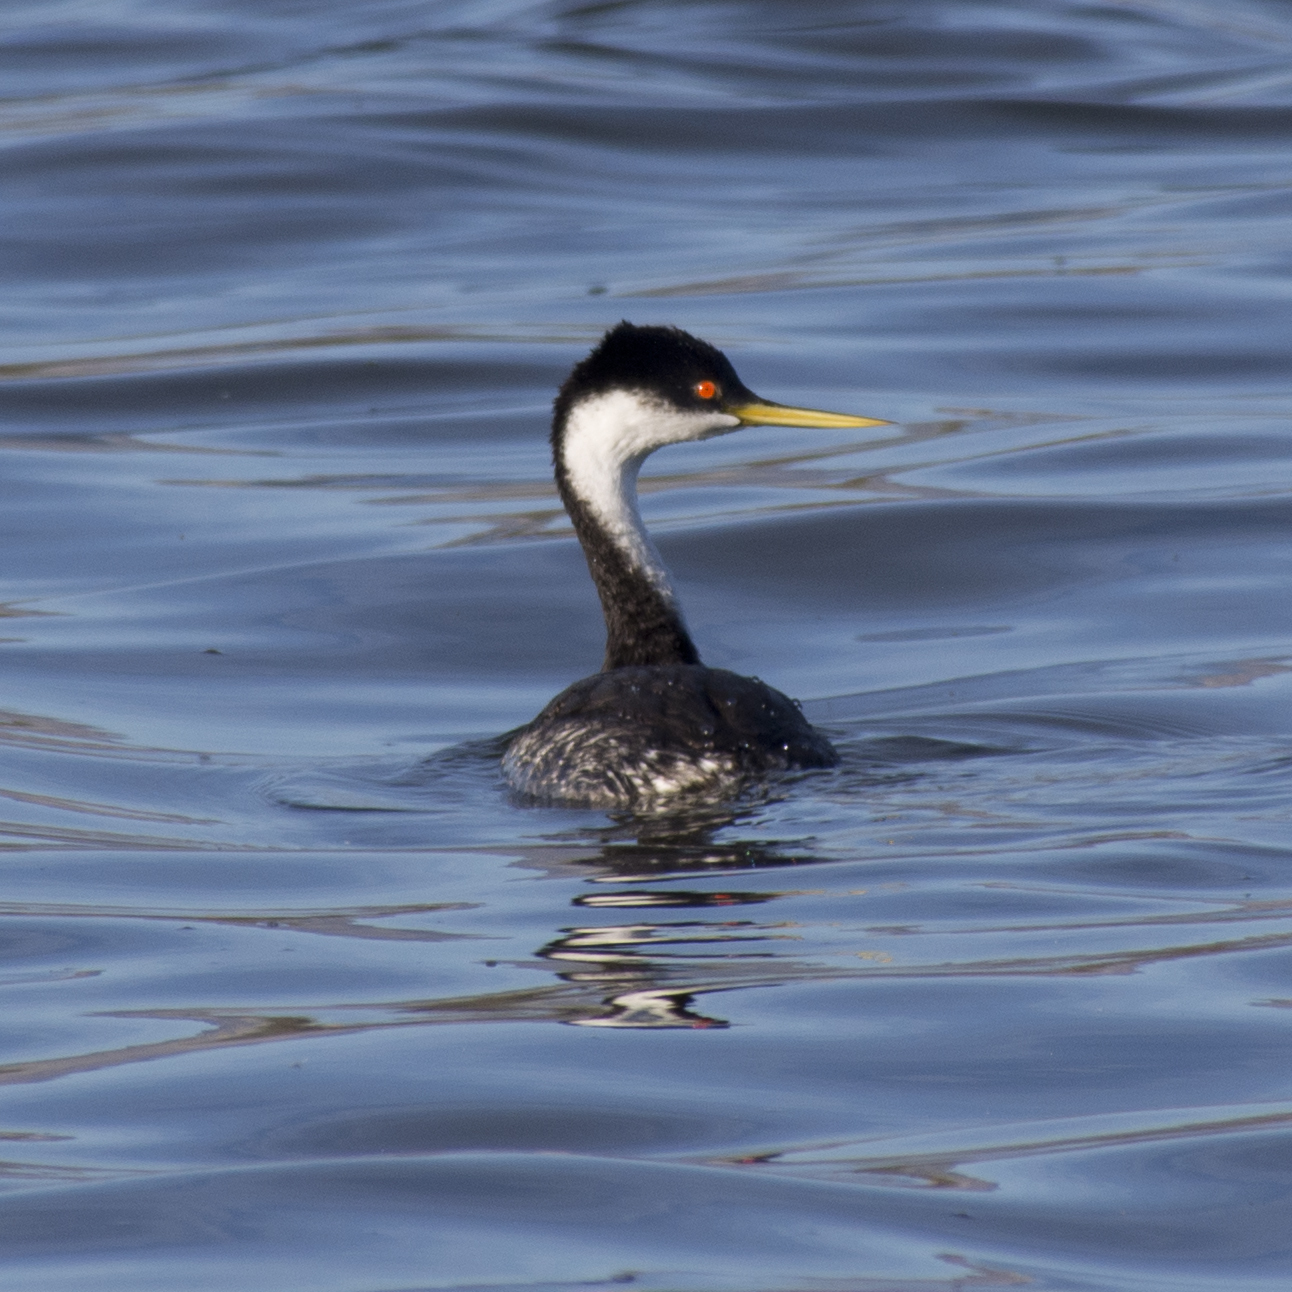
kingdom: Animalia
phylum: Chordata
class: Aves
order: Podicipediformes
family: Podicipedidae
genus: Aechmophorus
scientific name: Aechmophorus occidentalis
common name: Western grebe
